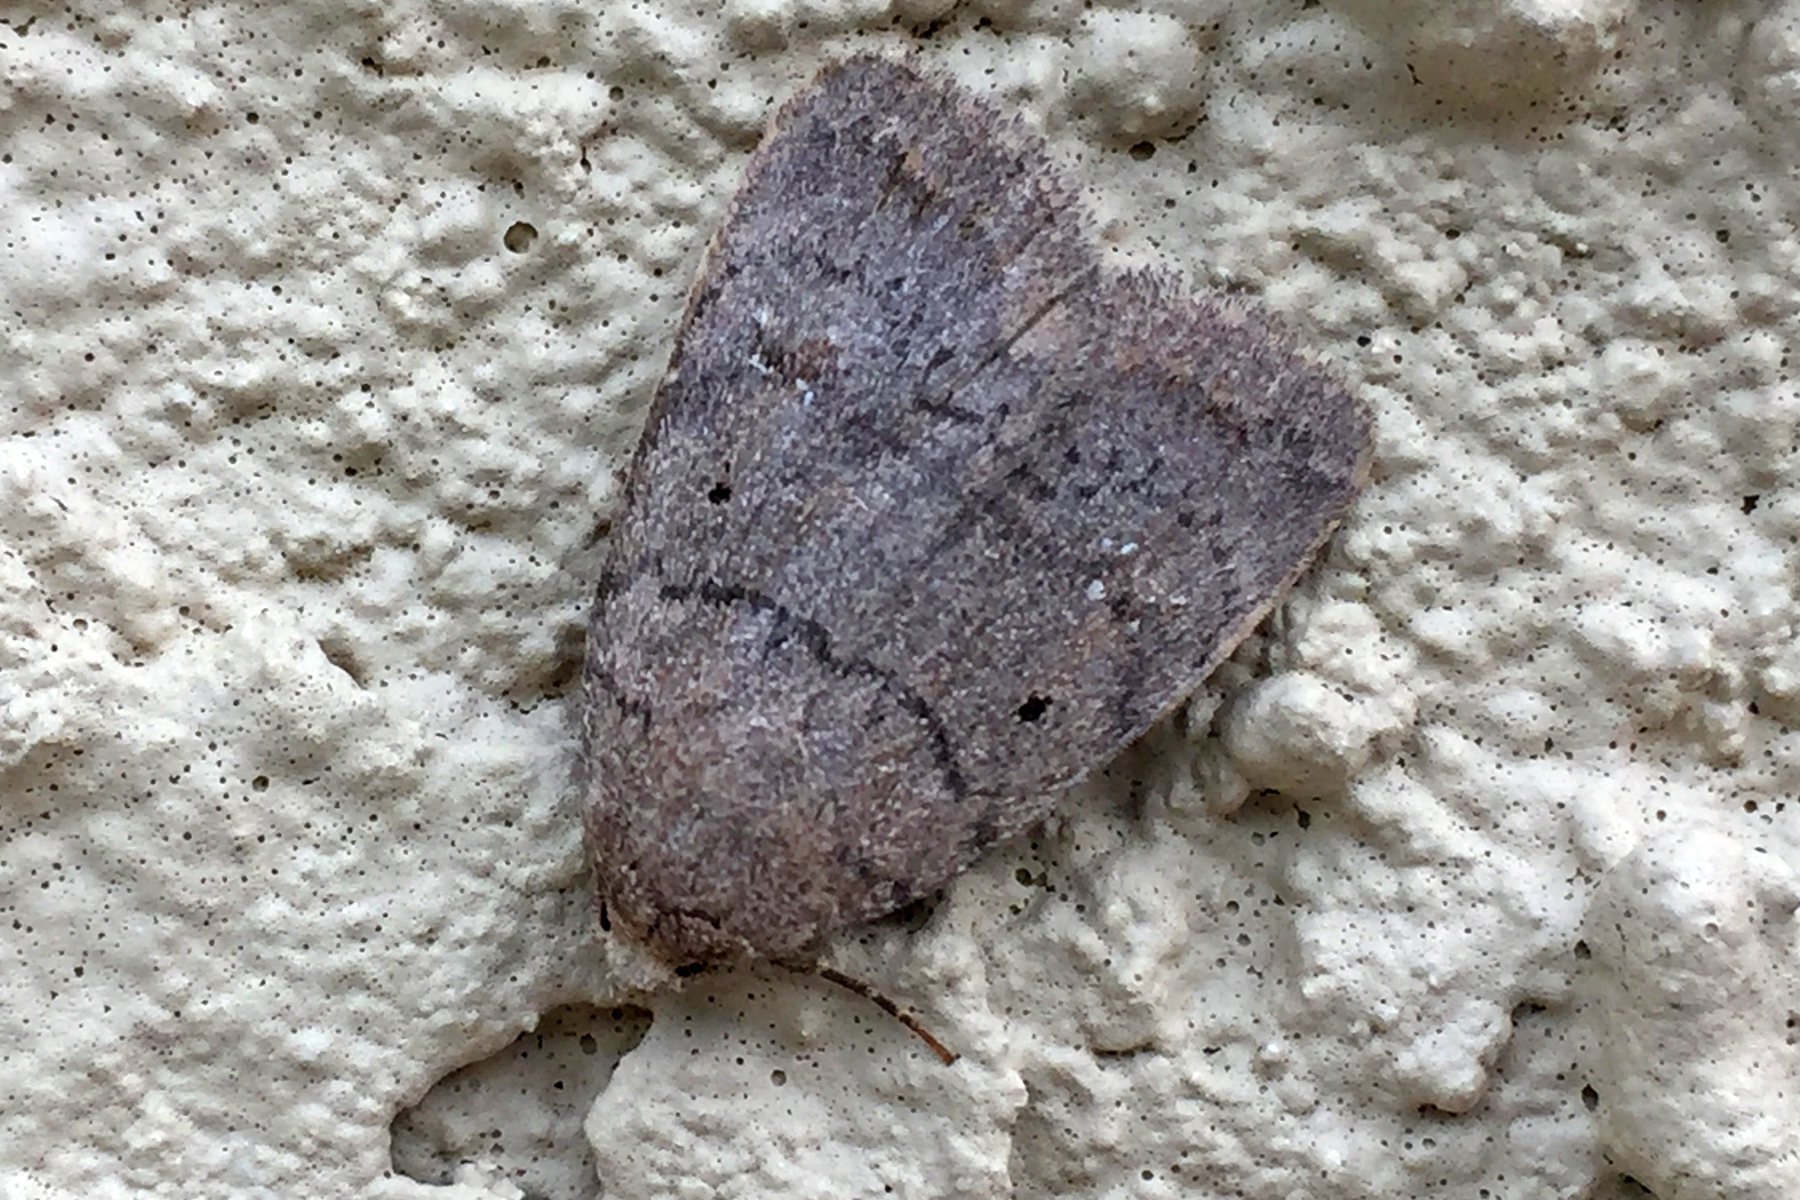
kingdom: Animalia
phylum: Arthropoda
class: Insecta
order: Lepidoptera
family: Noctuidae
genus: Athetis
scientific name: Athetis tarda
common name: Slowpoke moth
